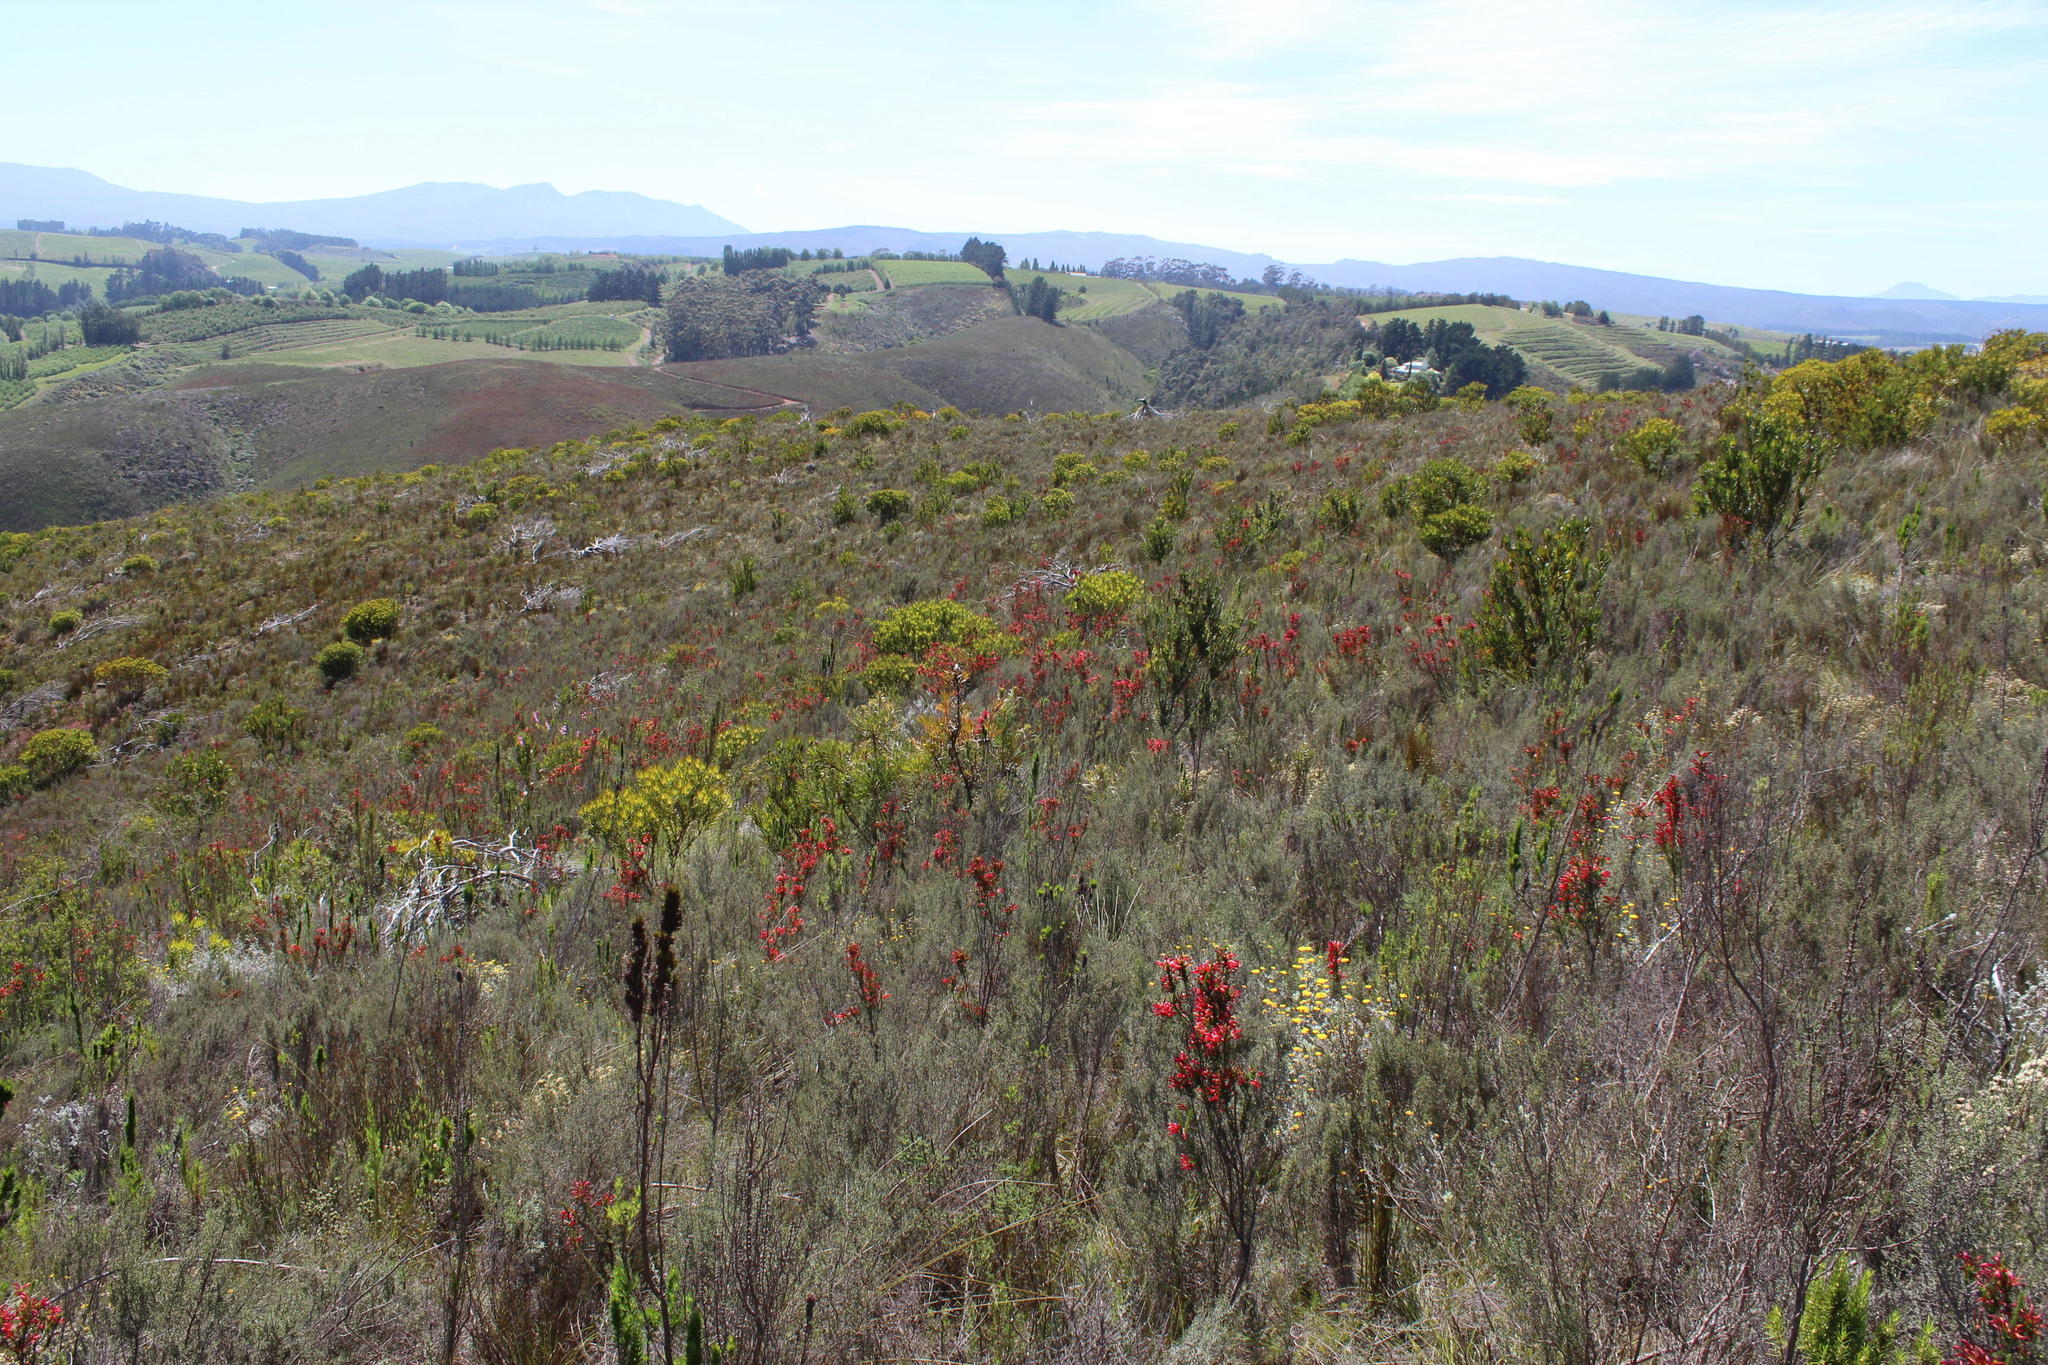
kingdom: Plantae
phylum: Tracheophyta
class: Magnoliopsida
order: Ericales
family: Ericaceae
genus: Erica
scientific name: Erica cruenta
